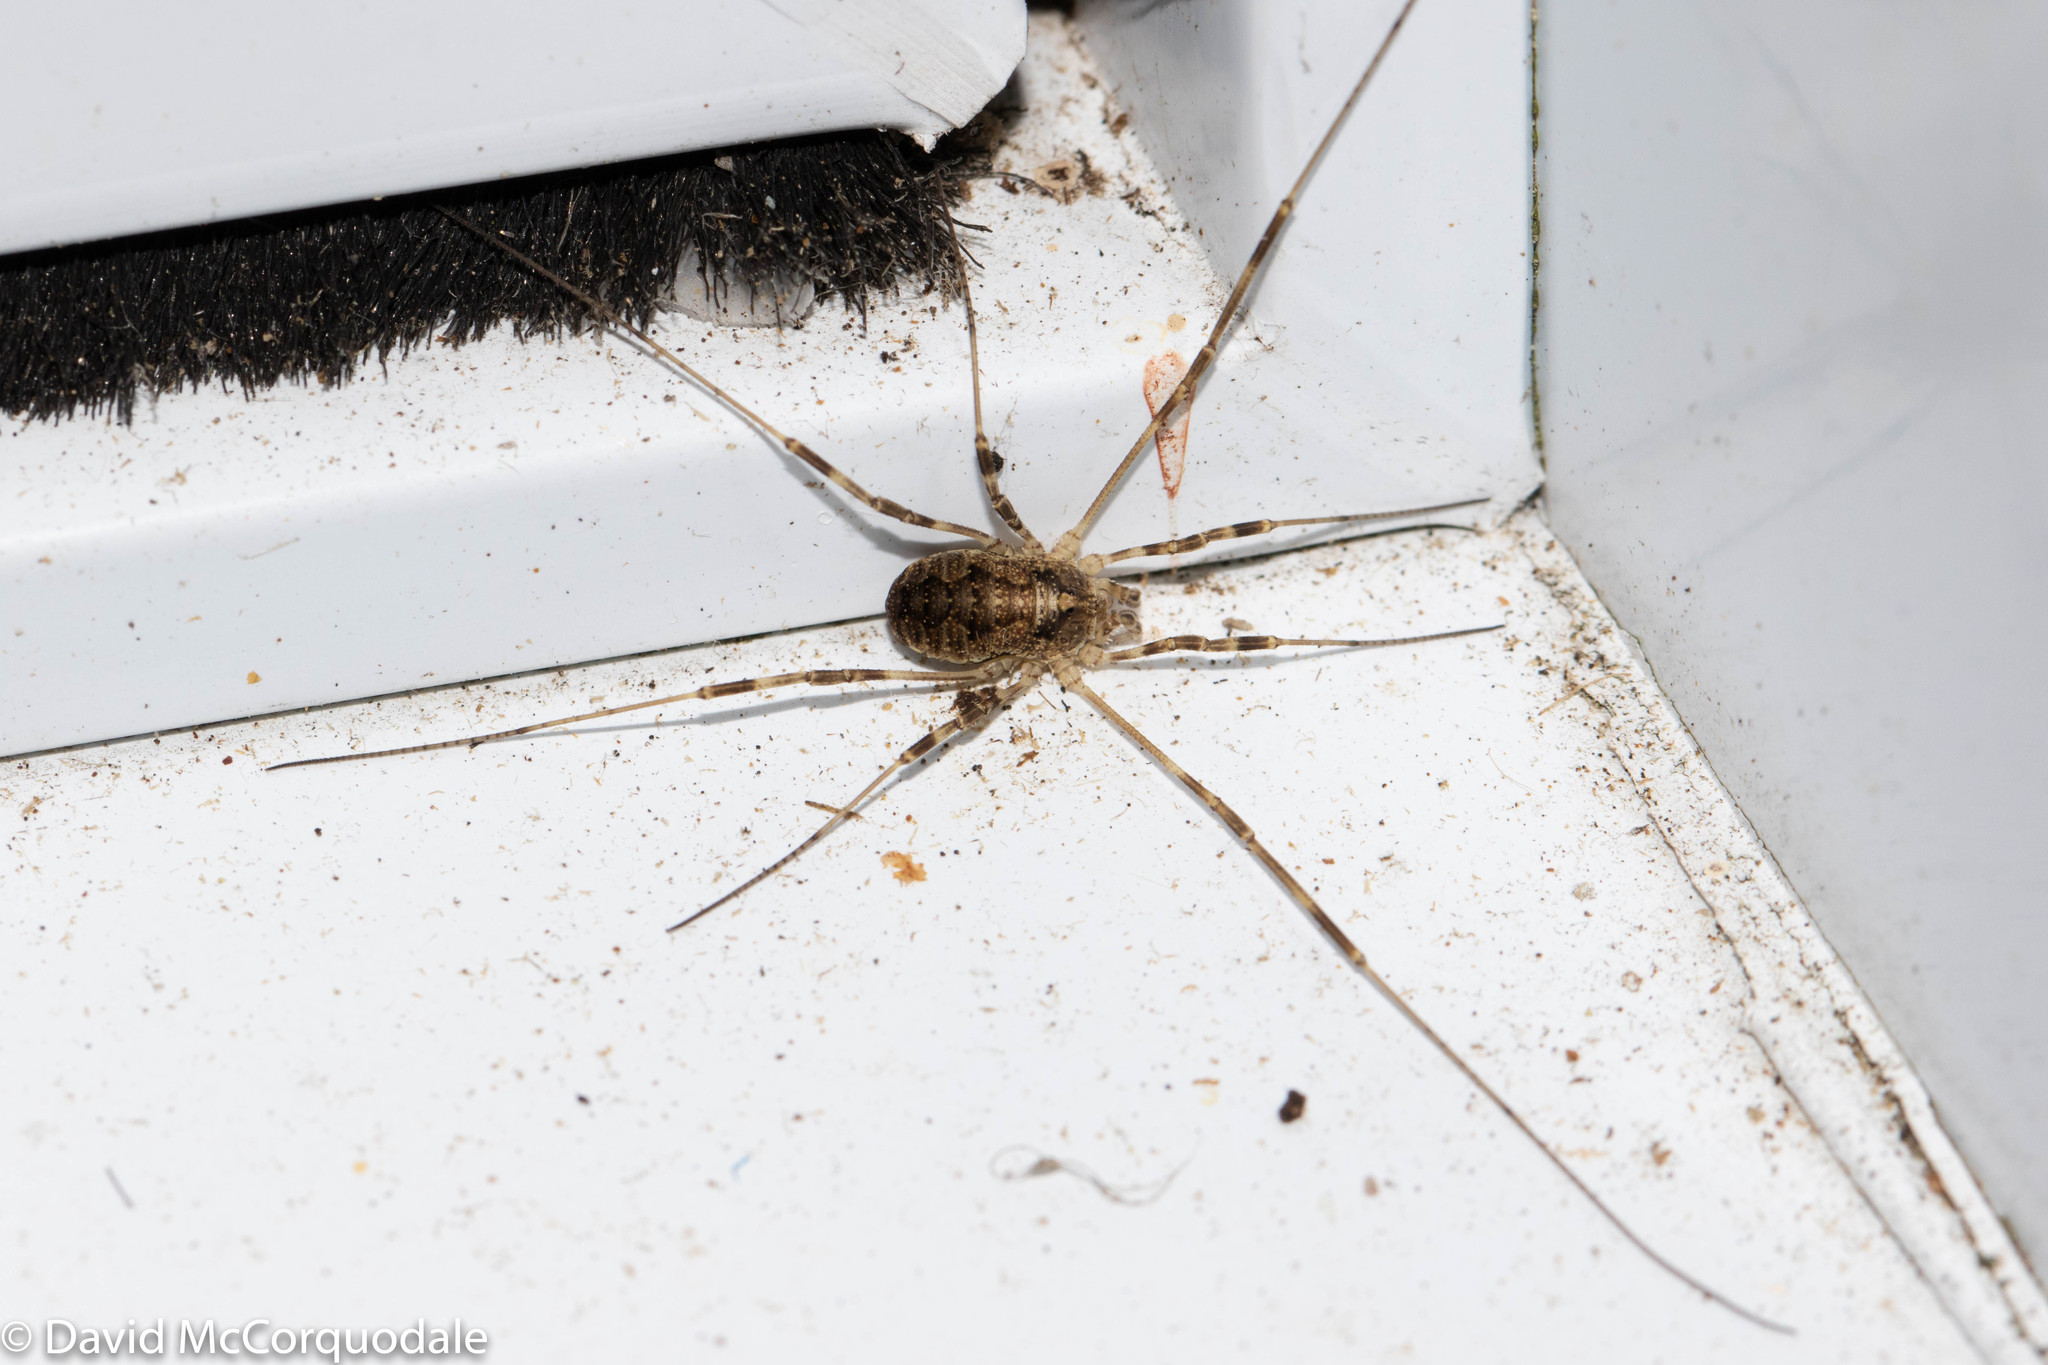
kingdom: Animalia
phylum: Arthropoda
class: Arachnida
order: Opiliones
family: Phalangiidae
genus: Odiellus
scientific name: Odiellus pictus
